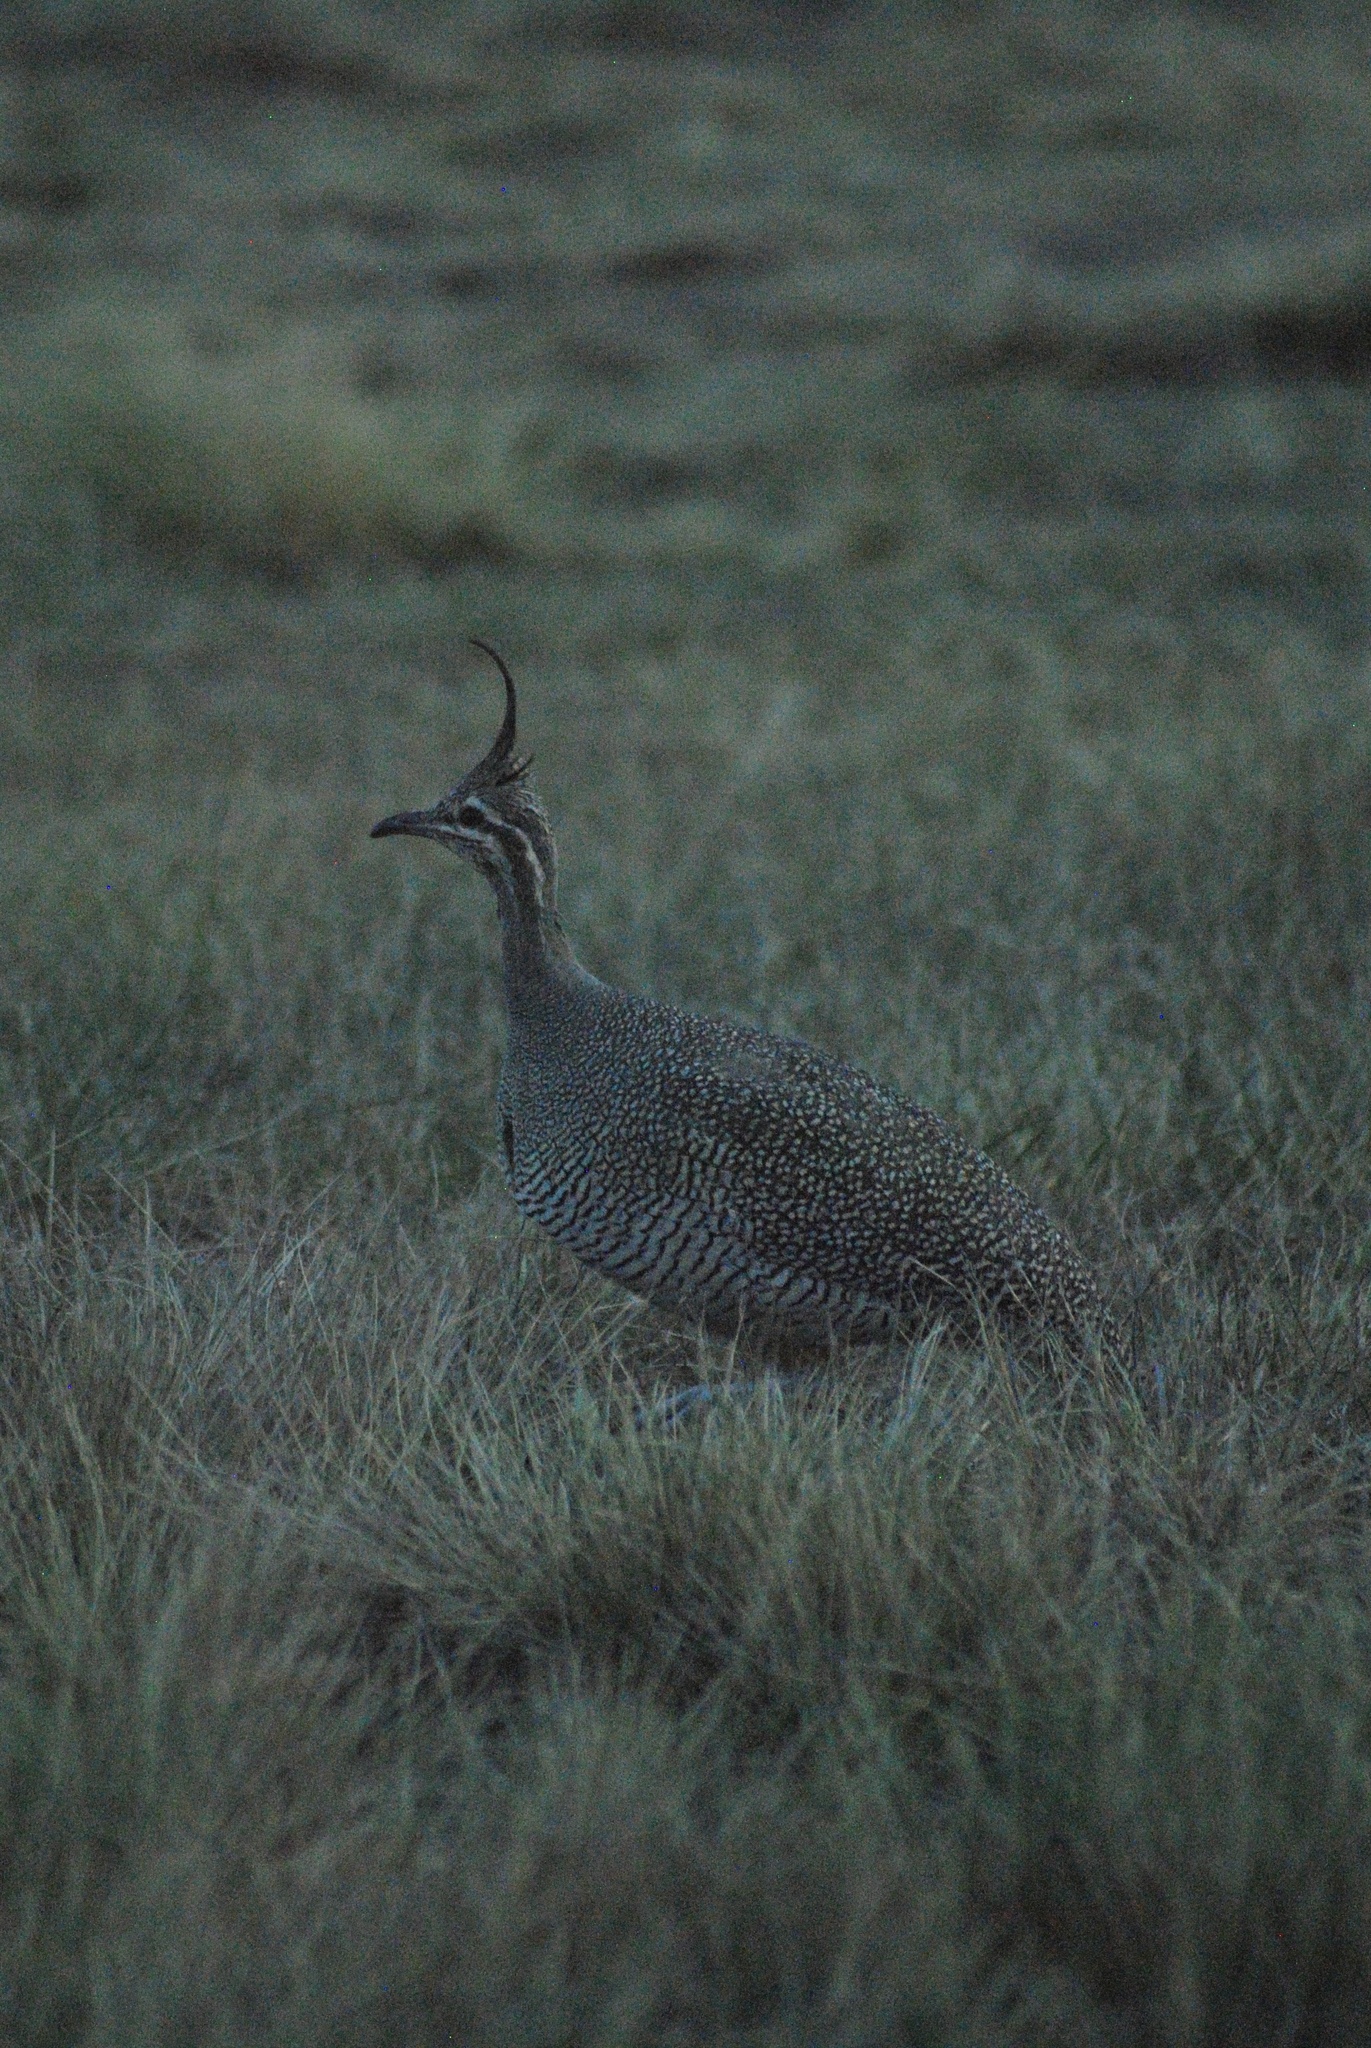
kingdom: Animalia
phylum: Chordata
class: Aves
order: Tinamiformes
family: Tinamidae
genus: Eudromia
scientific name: Eudromia elegans
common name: Elegant crested tinamou
